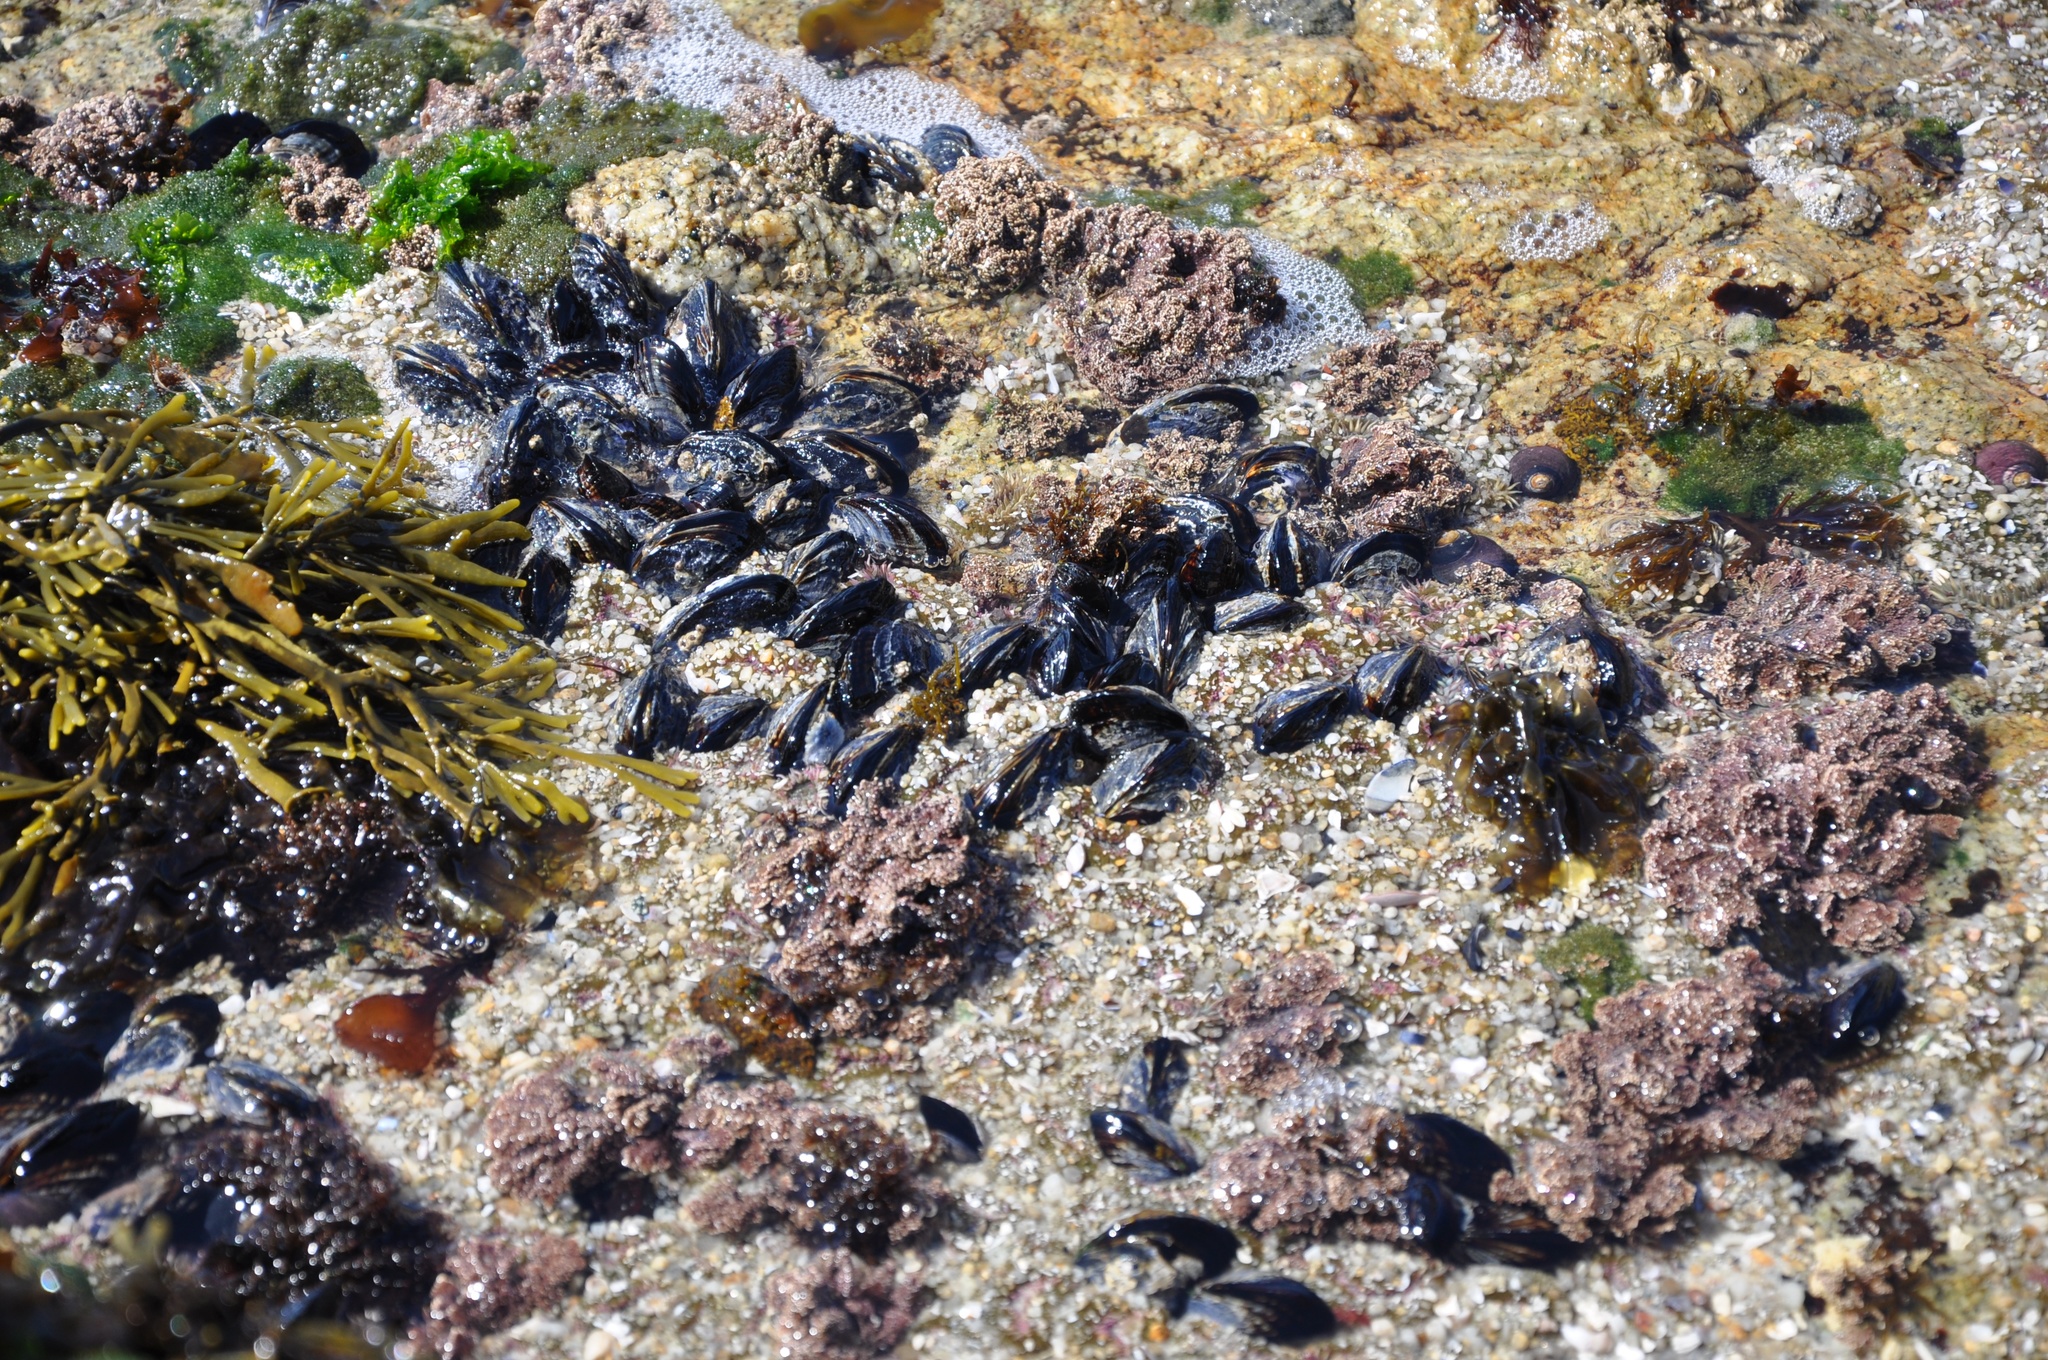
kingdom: Animalia
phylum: Mollusca
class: Bivalvia
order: Mytilida
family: Mytilidae
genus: Mytilus
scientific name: Mytilus californianus
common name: California mussel
